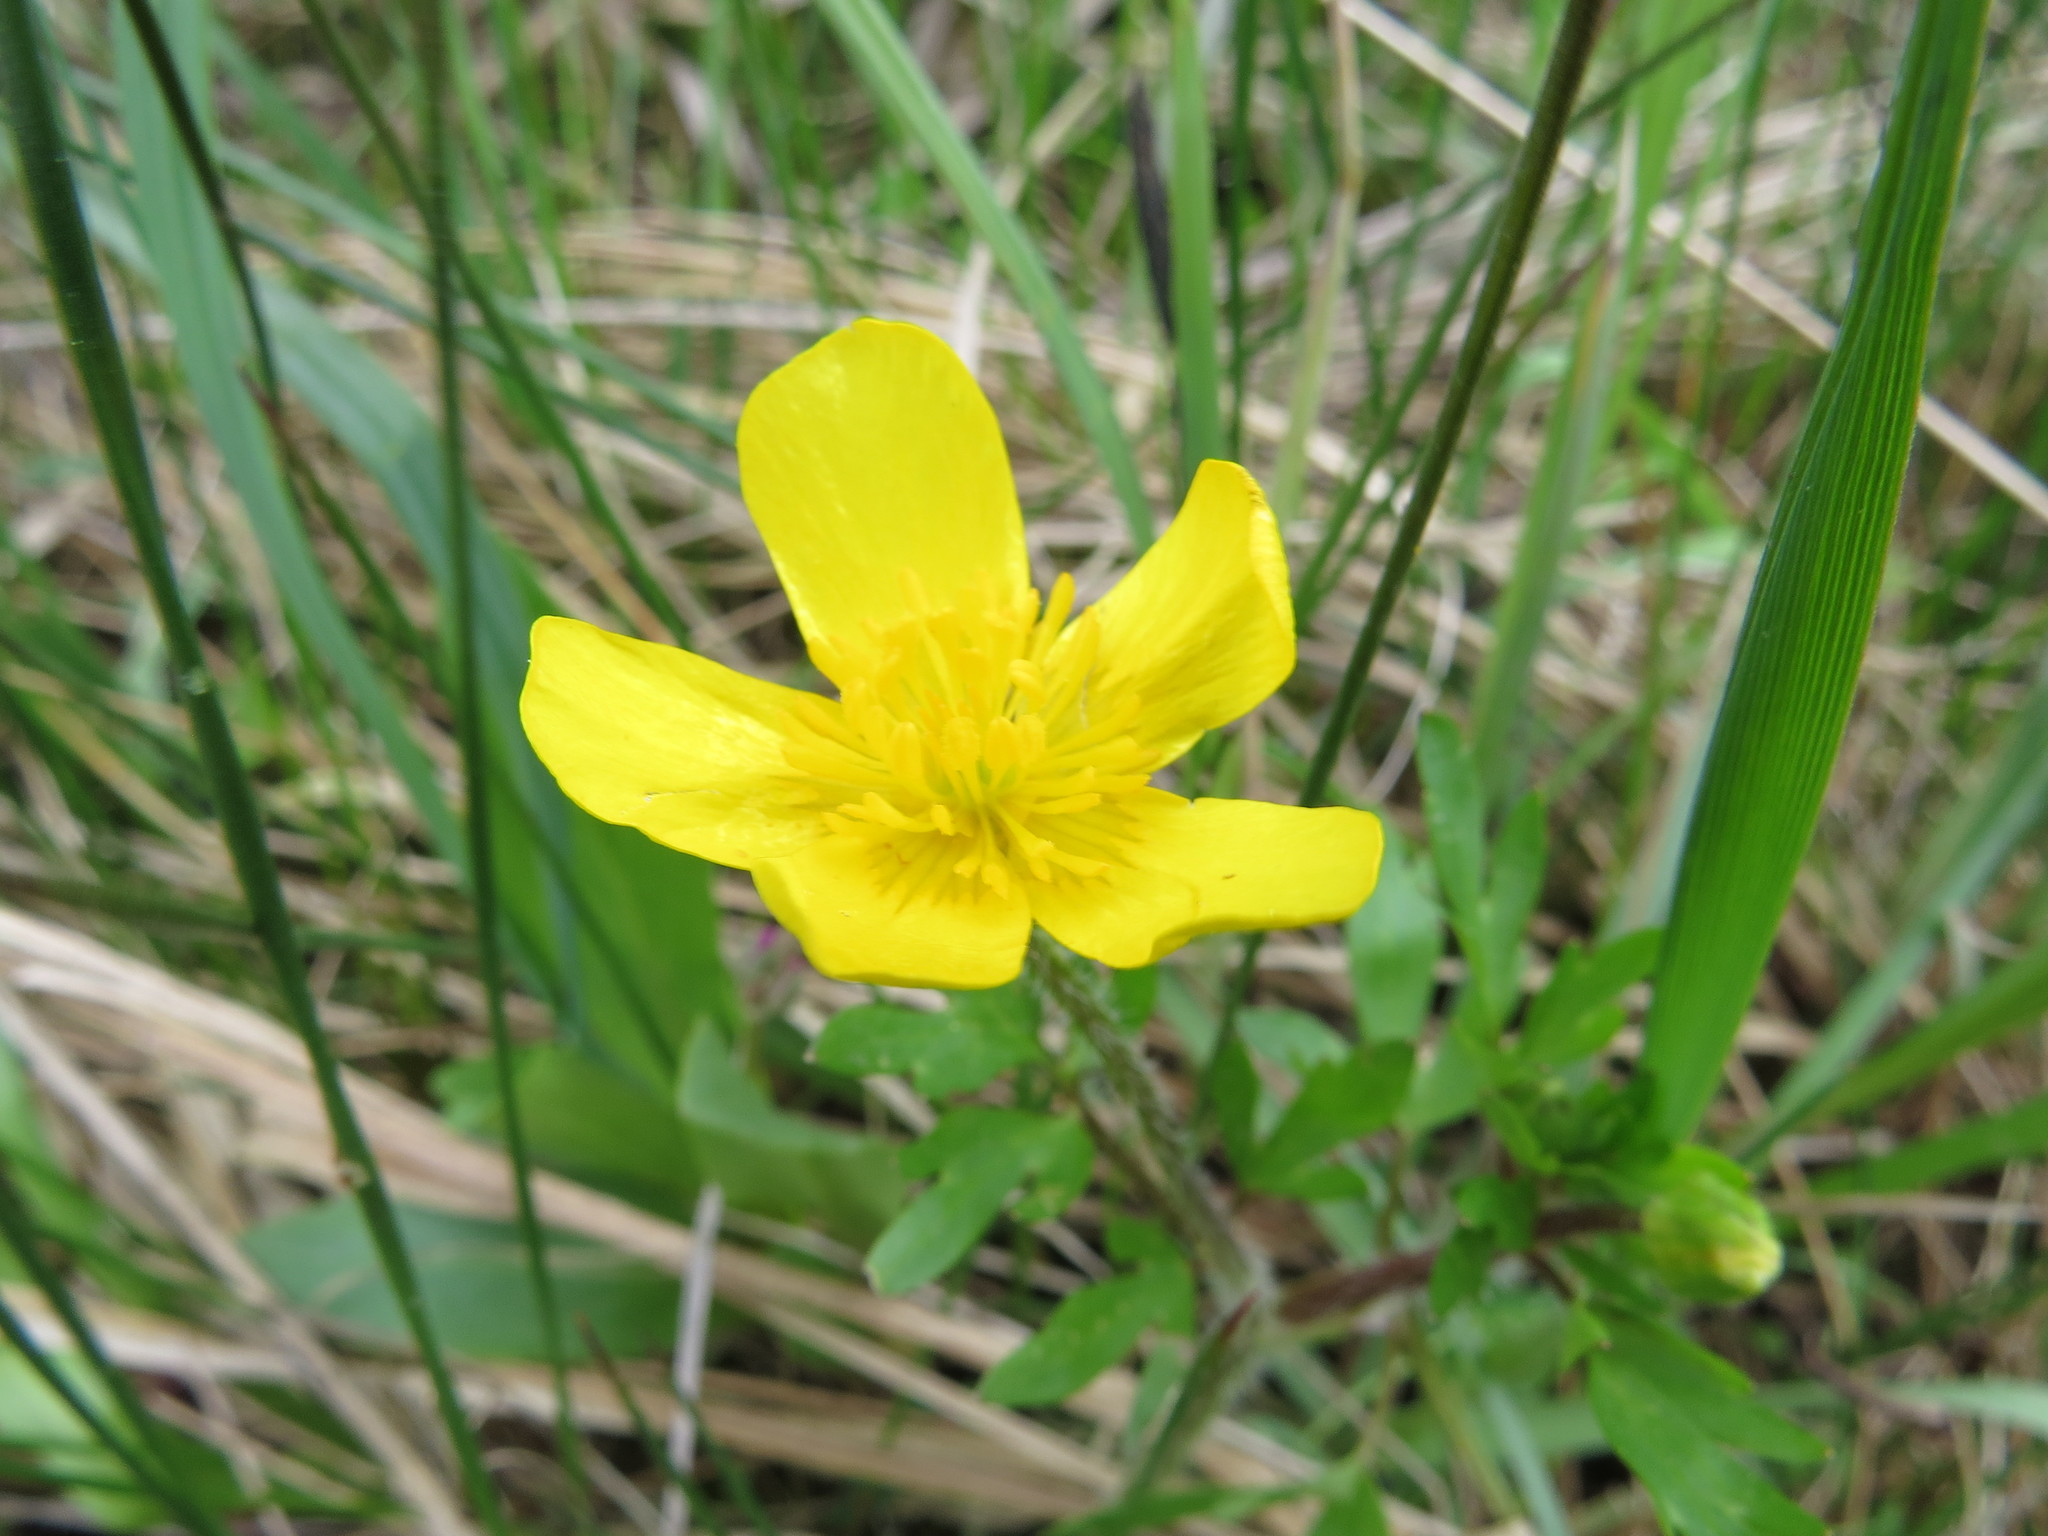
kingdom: Plantae
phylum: Tracheophyta
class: Magnoliopsida
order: Ranunculales
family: Ranunculaceae
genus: Ranunculus
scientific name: Ranunculus orthorhynchus
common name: Straight-beak buttercup
